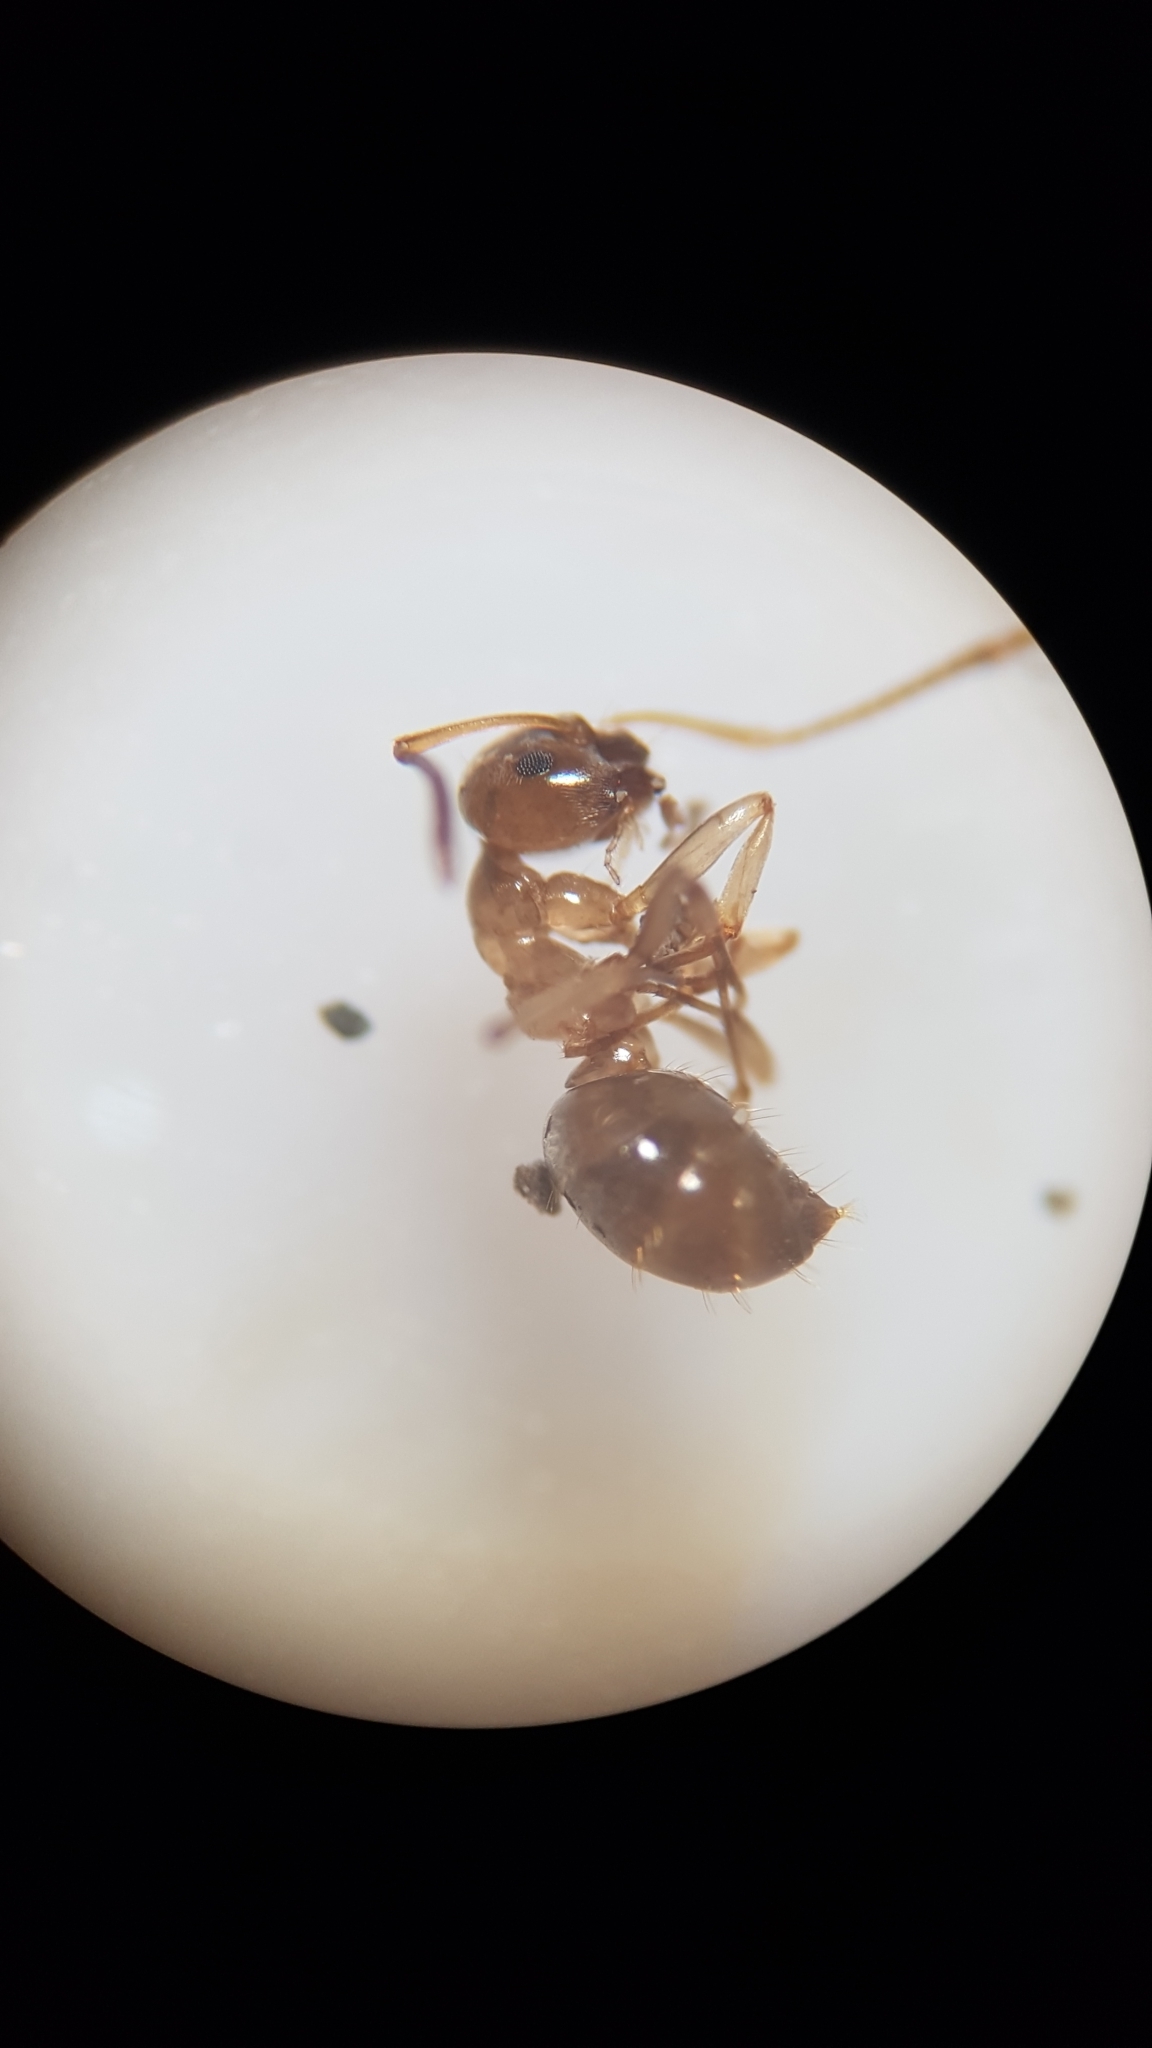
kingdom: Animalia
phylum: Arthropoda
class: Insecta
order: Hymenoptera
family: Formicidae
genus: Prolasius
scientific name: Prolasius advenus
